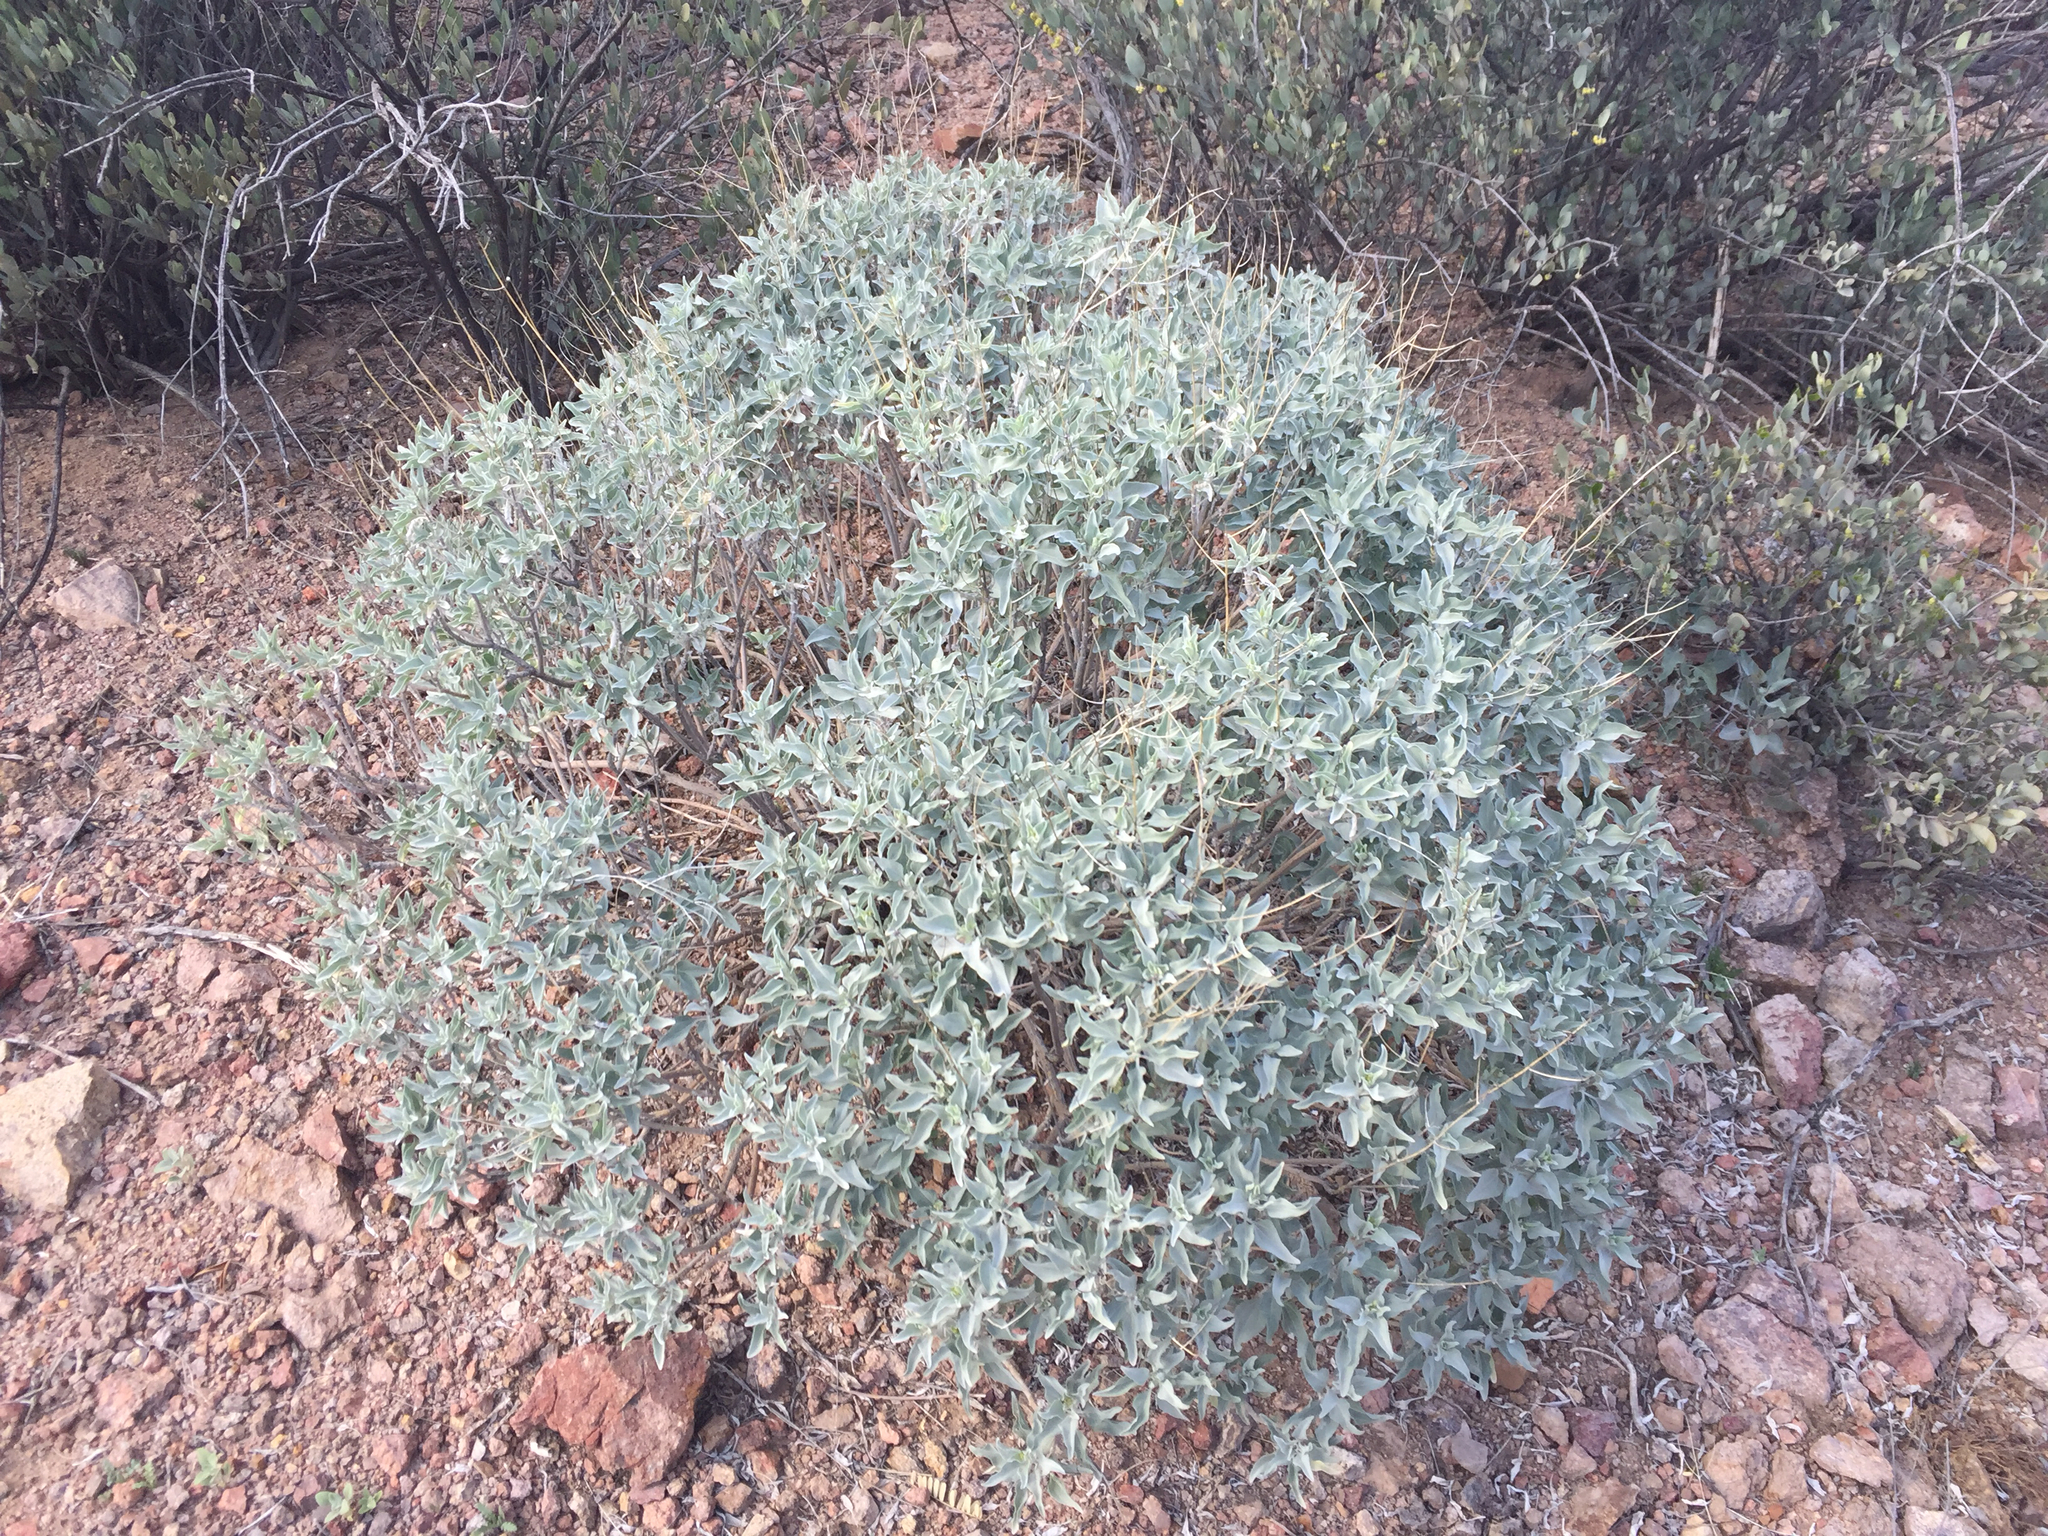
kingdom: Plantae
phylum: Tracheophyta
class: Magnoliopsida
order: Asterales
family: Asteraceae
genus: Encelia
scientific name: Encelia farinosa
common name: Brittlebush
